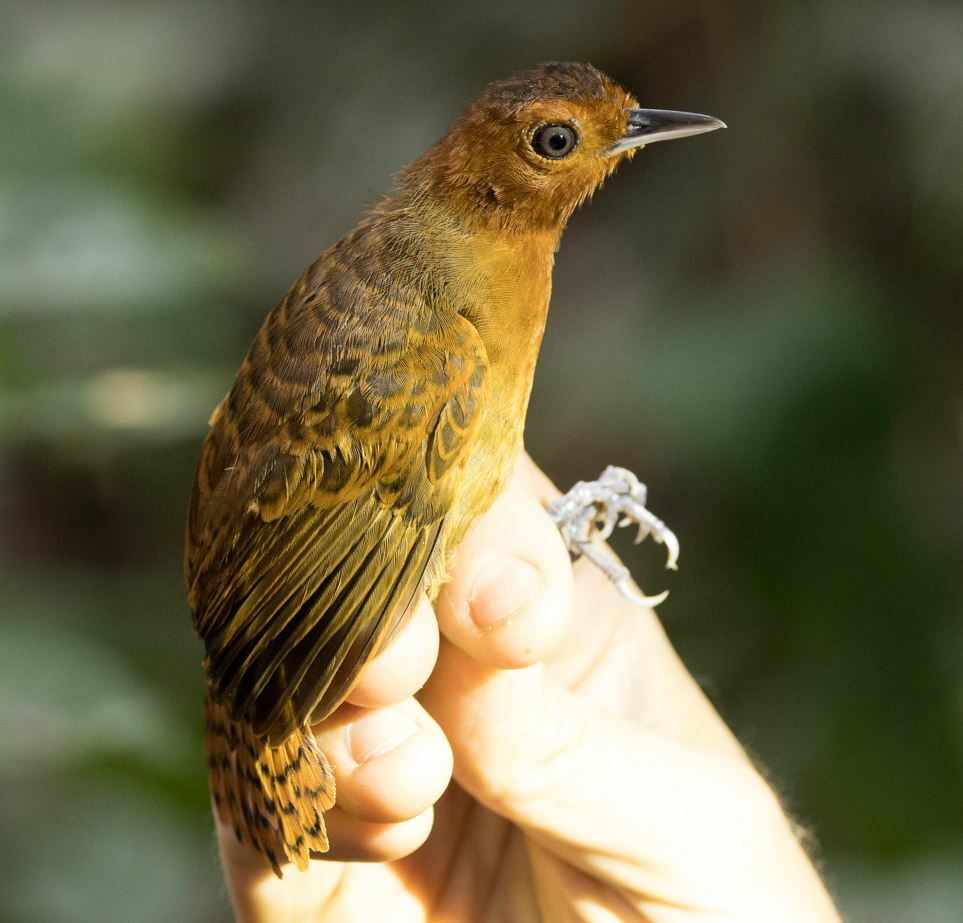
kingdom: Animalia
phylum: Chordata
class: Aves
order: Passeriformes
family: Thamnophilidae
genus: Gymnopithys
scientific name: Gymnopithys salvini
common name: White-throated antbird
